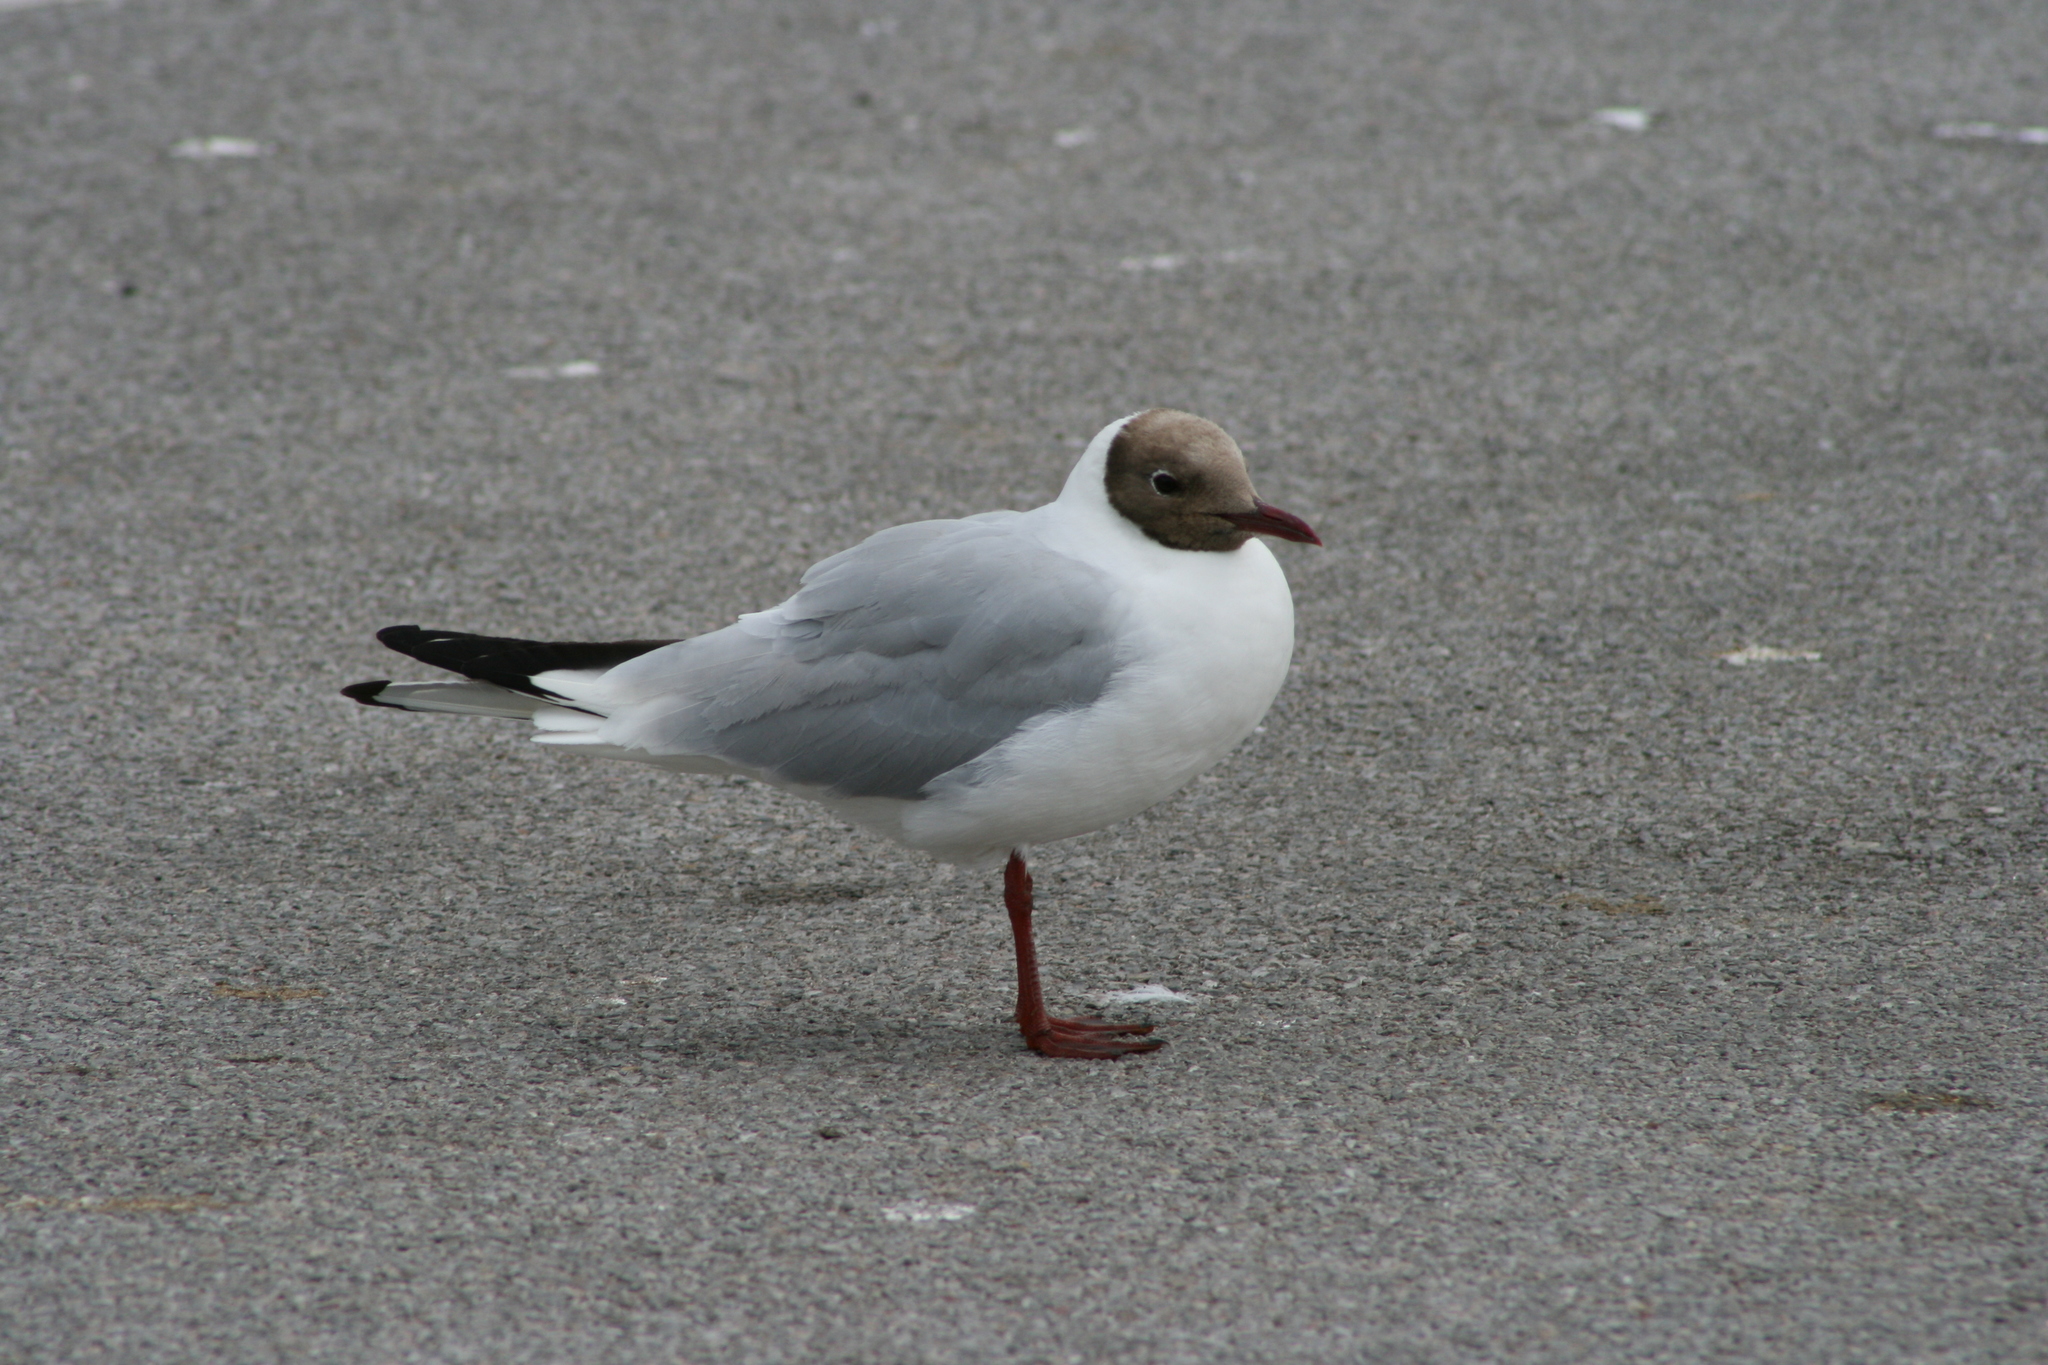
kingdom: Animalia
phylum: Chordata
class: Aves
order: Charadriiformes
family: Laridae
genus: Chroicocephalus
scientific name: Chroicocephalus ridibundus
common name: Black-headed gull
